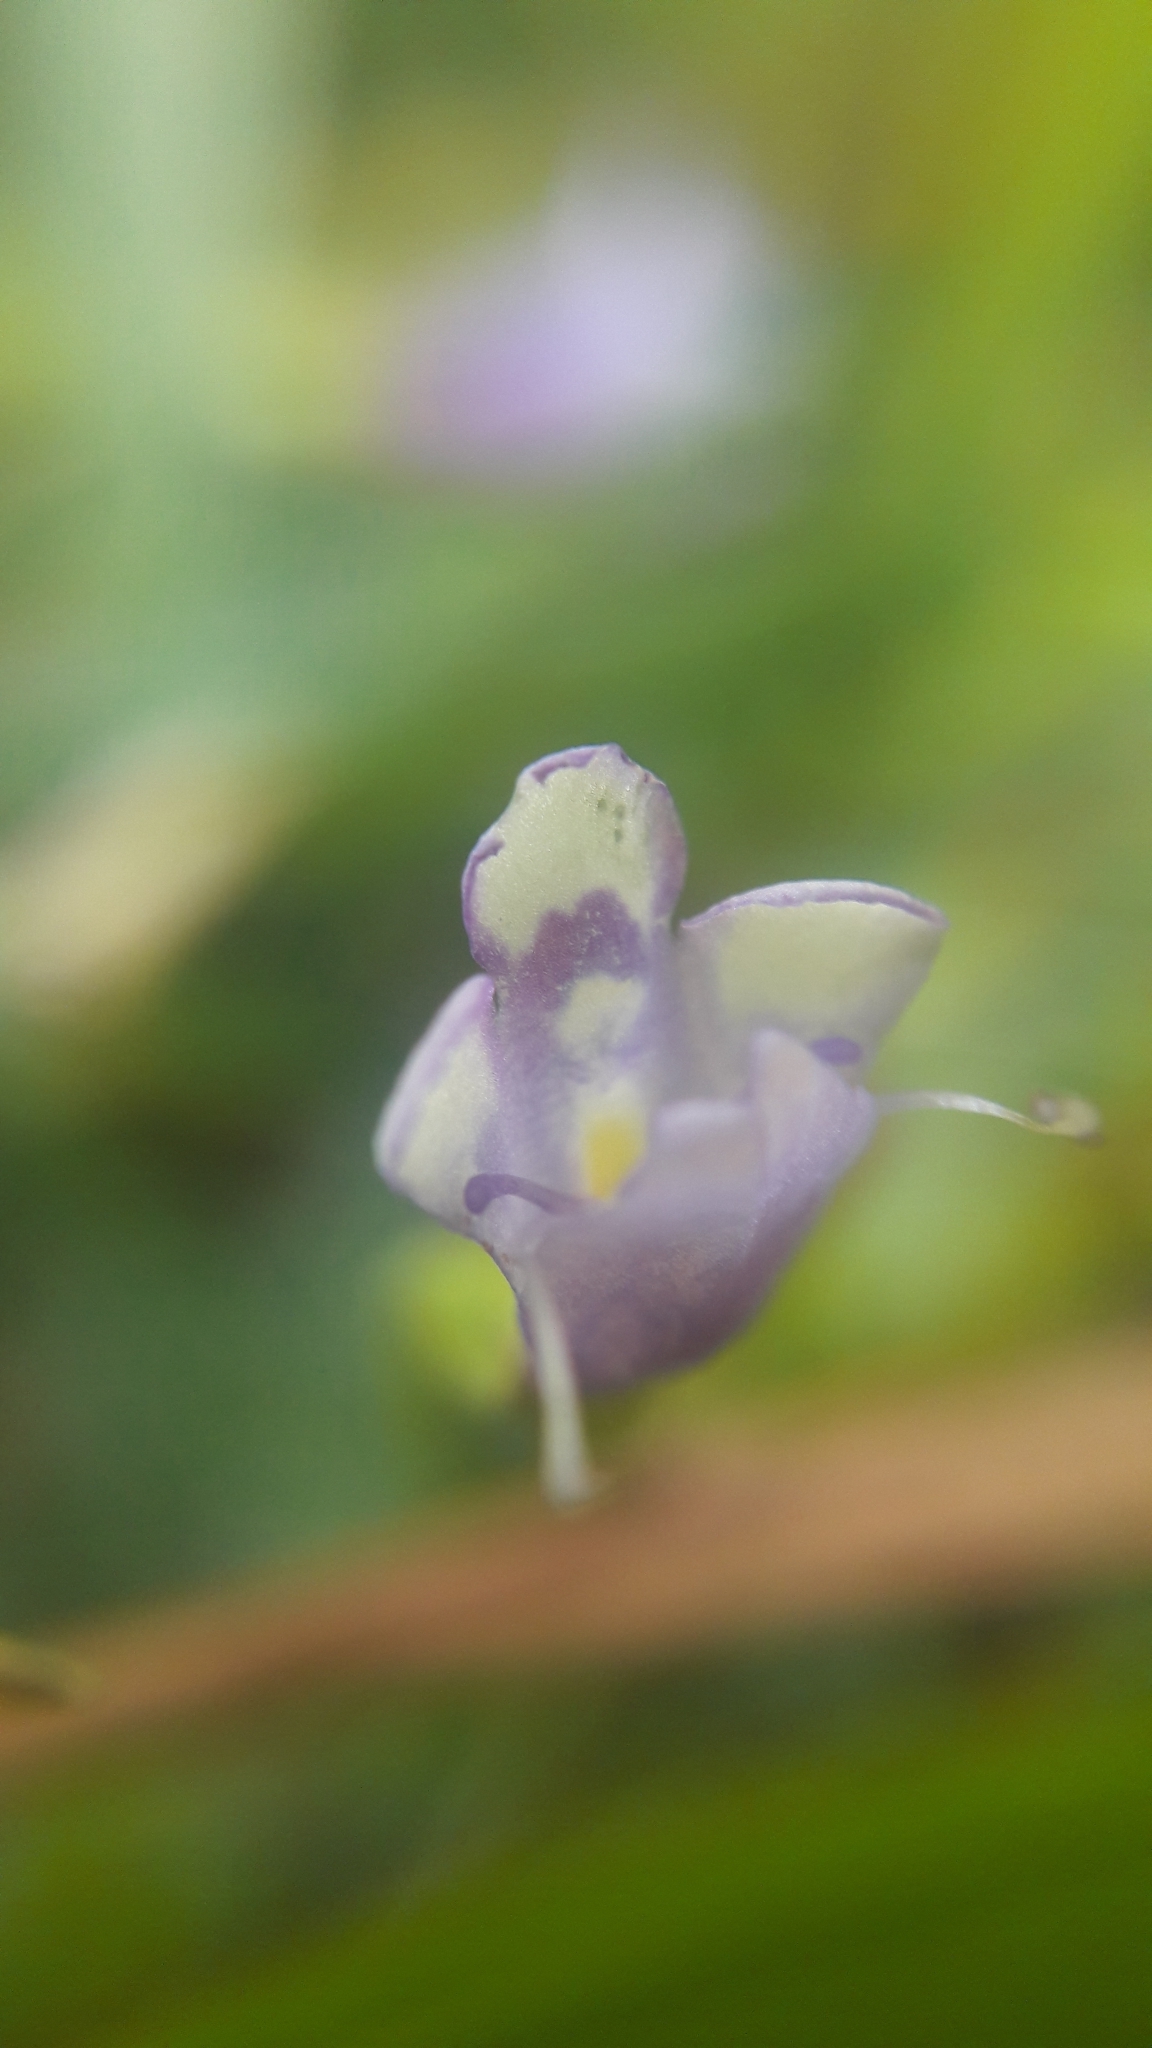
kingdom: Plantae
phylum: Tracheophyta
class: Magnoliopsida
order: Lamiales
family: Linderniaceae
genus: Torenia
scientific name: Torenia crustacea
